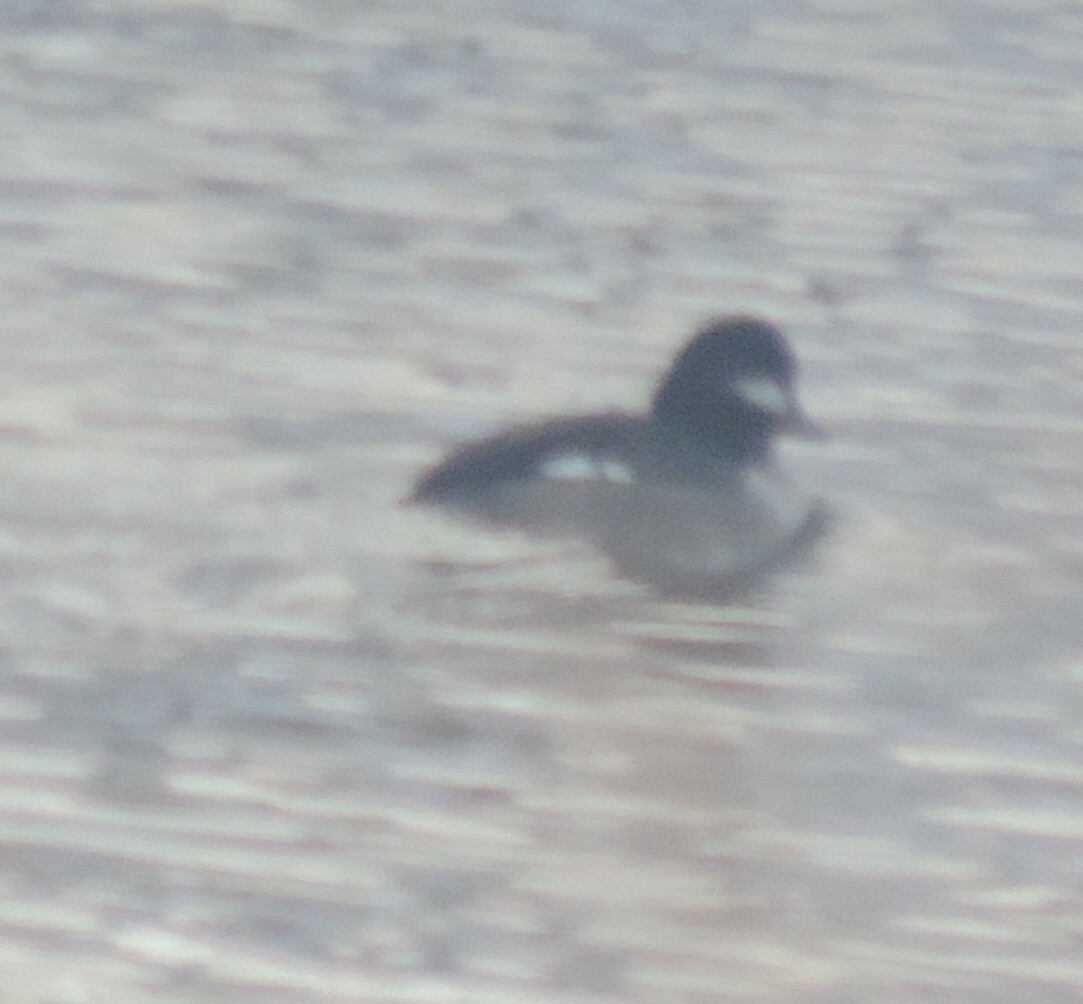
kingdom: Animalia
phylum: Chordata
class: Aves
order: Anseriformes
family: Anatidae
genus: Bucephala
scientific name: Bucephala albeola
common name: Bufflehead
